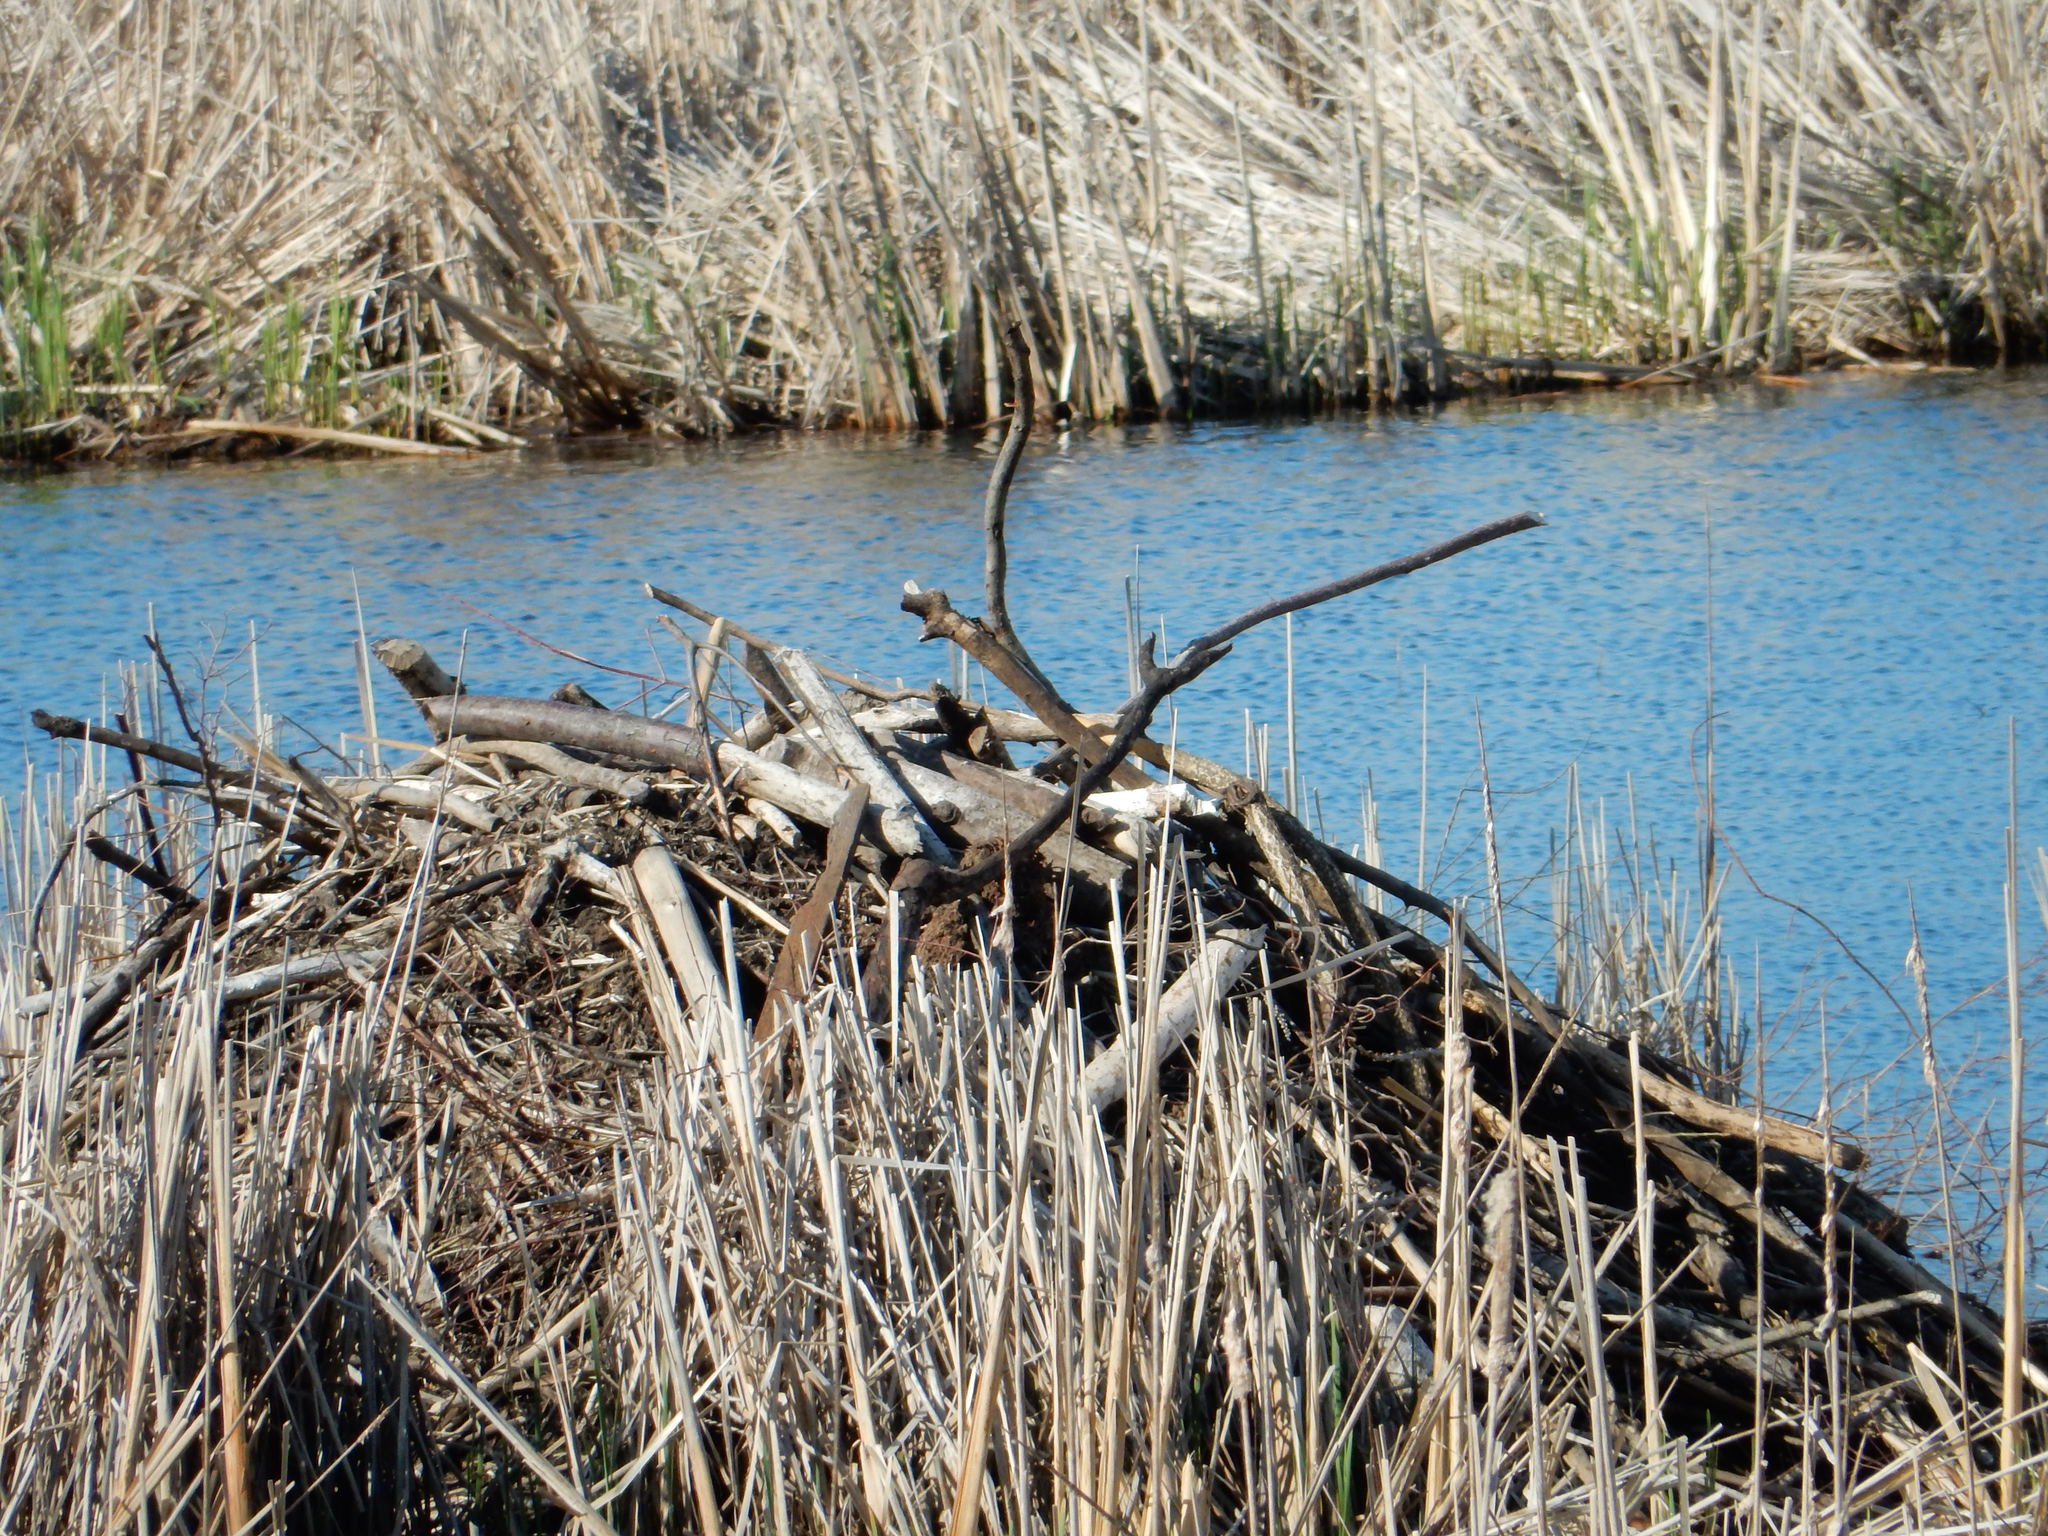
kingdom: Animalia
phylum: Chordata
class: Mammalia
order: Rodentia
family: Castoridae
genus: Castor
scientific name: Castor canadensis
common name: American beaver
